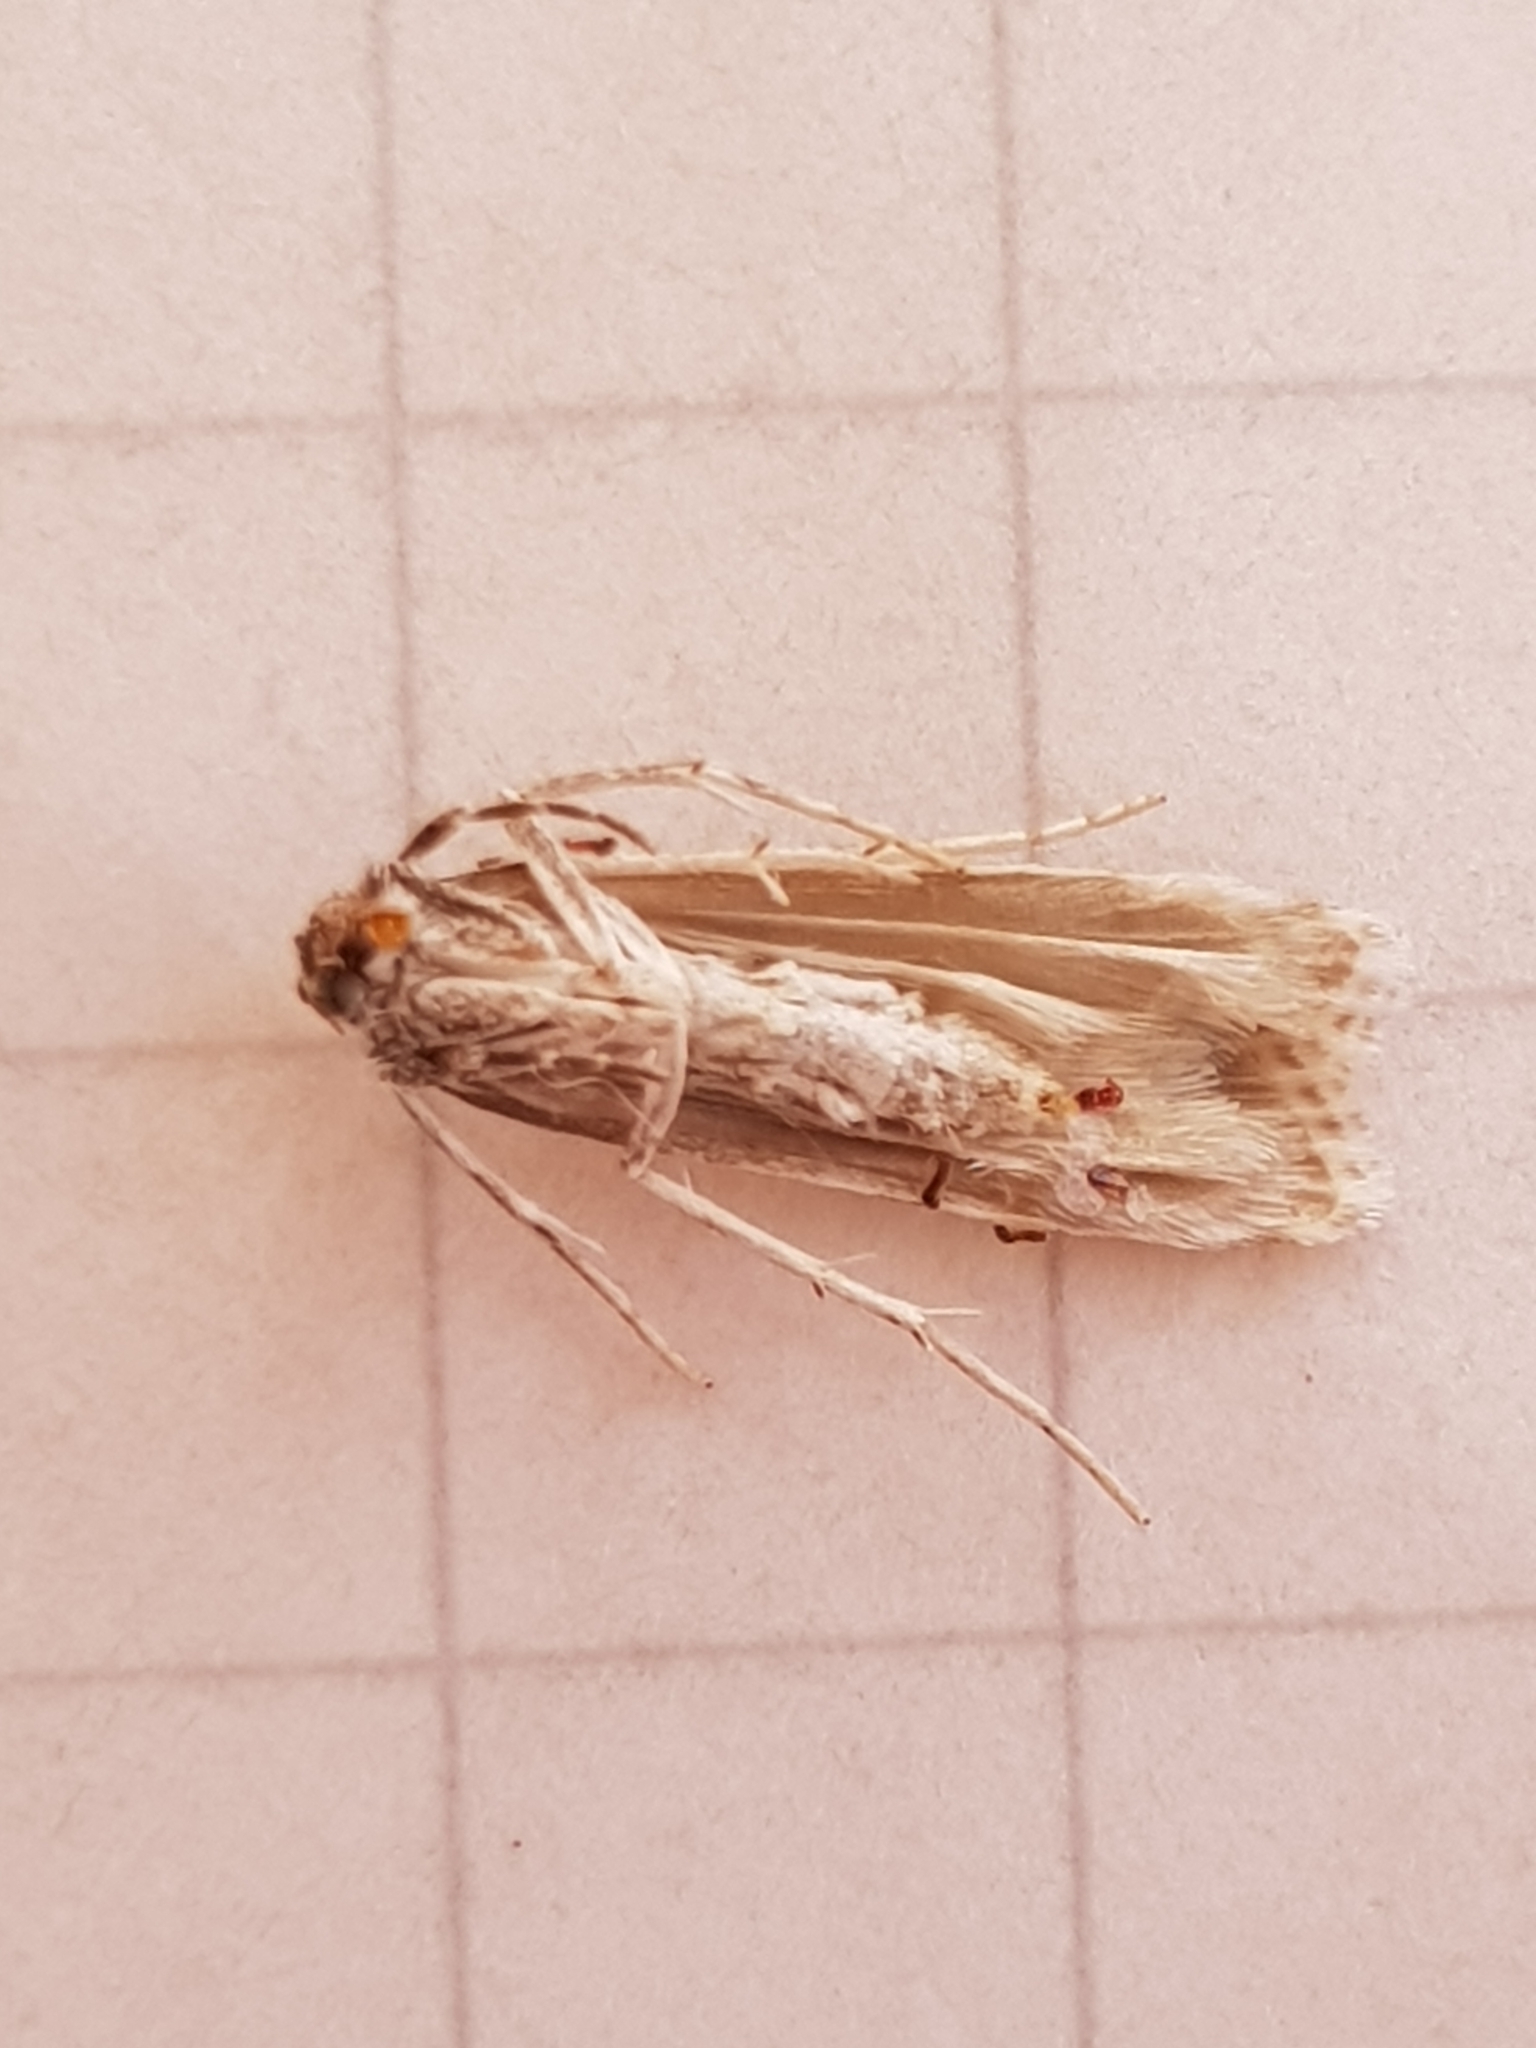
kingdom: Animalia
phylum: Arthropoda
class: Insecta
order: Lepidoptera
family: Crambidae
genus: Scoparia
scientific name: Scoparia chalicodes
